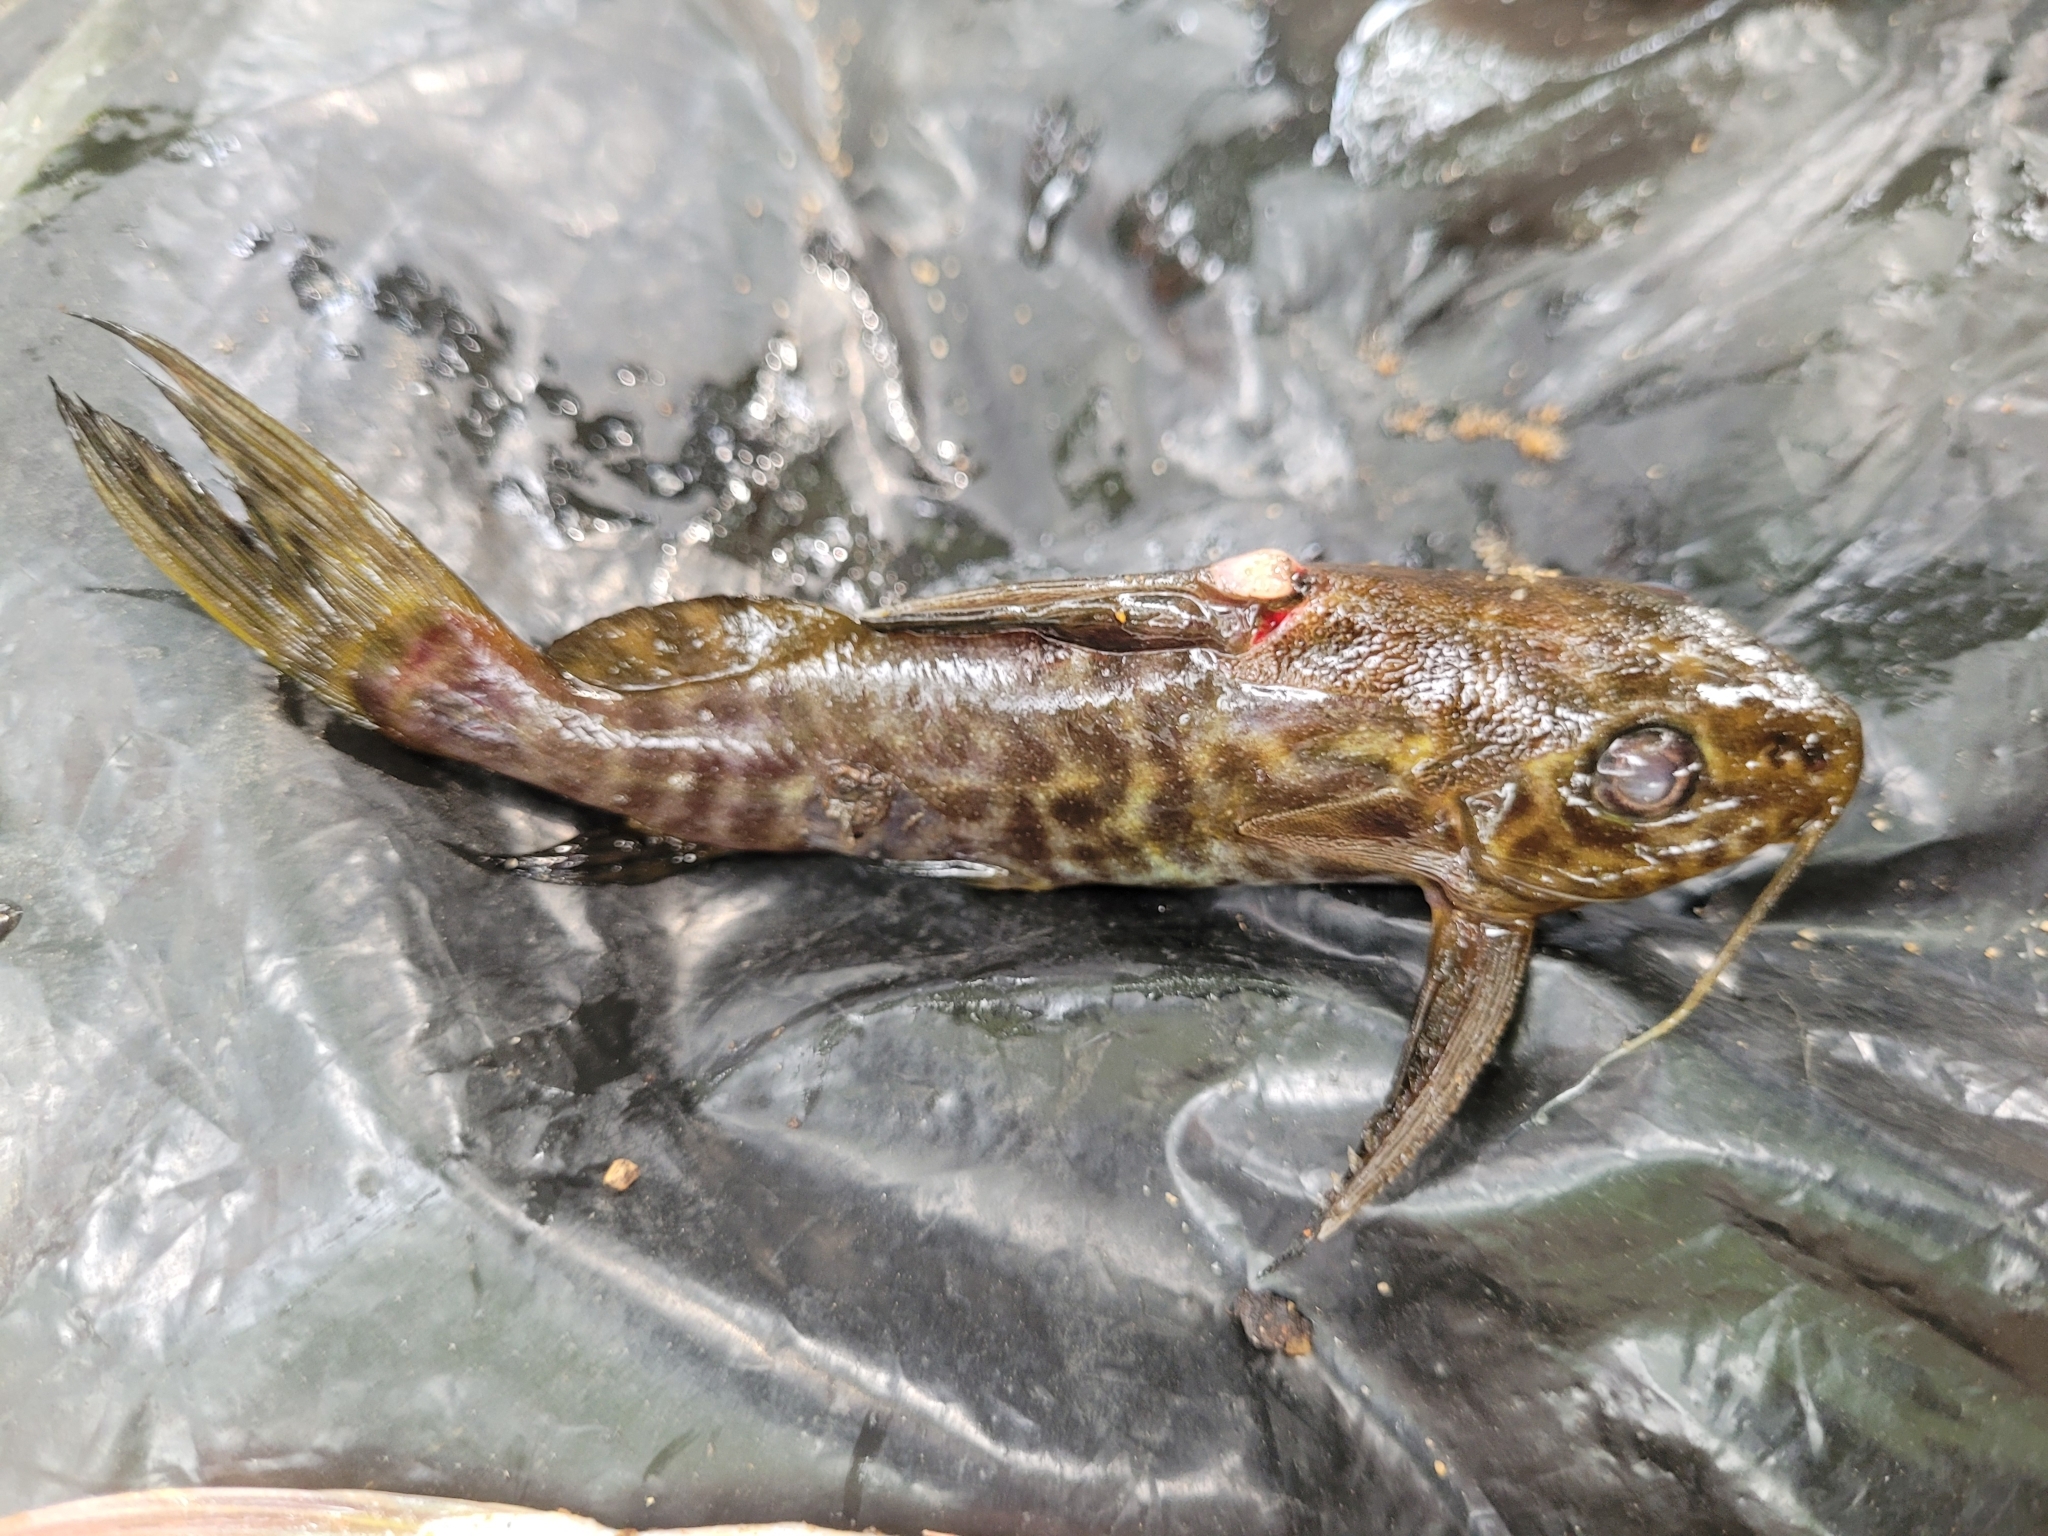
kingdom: Animalia
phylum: Chordata
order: Siluriformes
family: Mochokidae
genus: Synodontis
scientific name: Synodontis koensis
